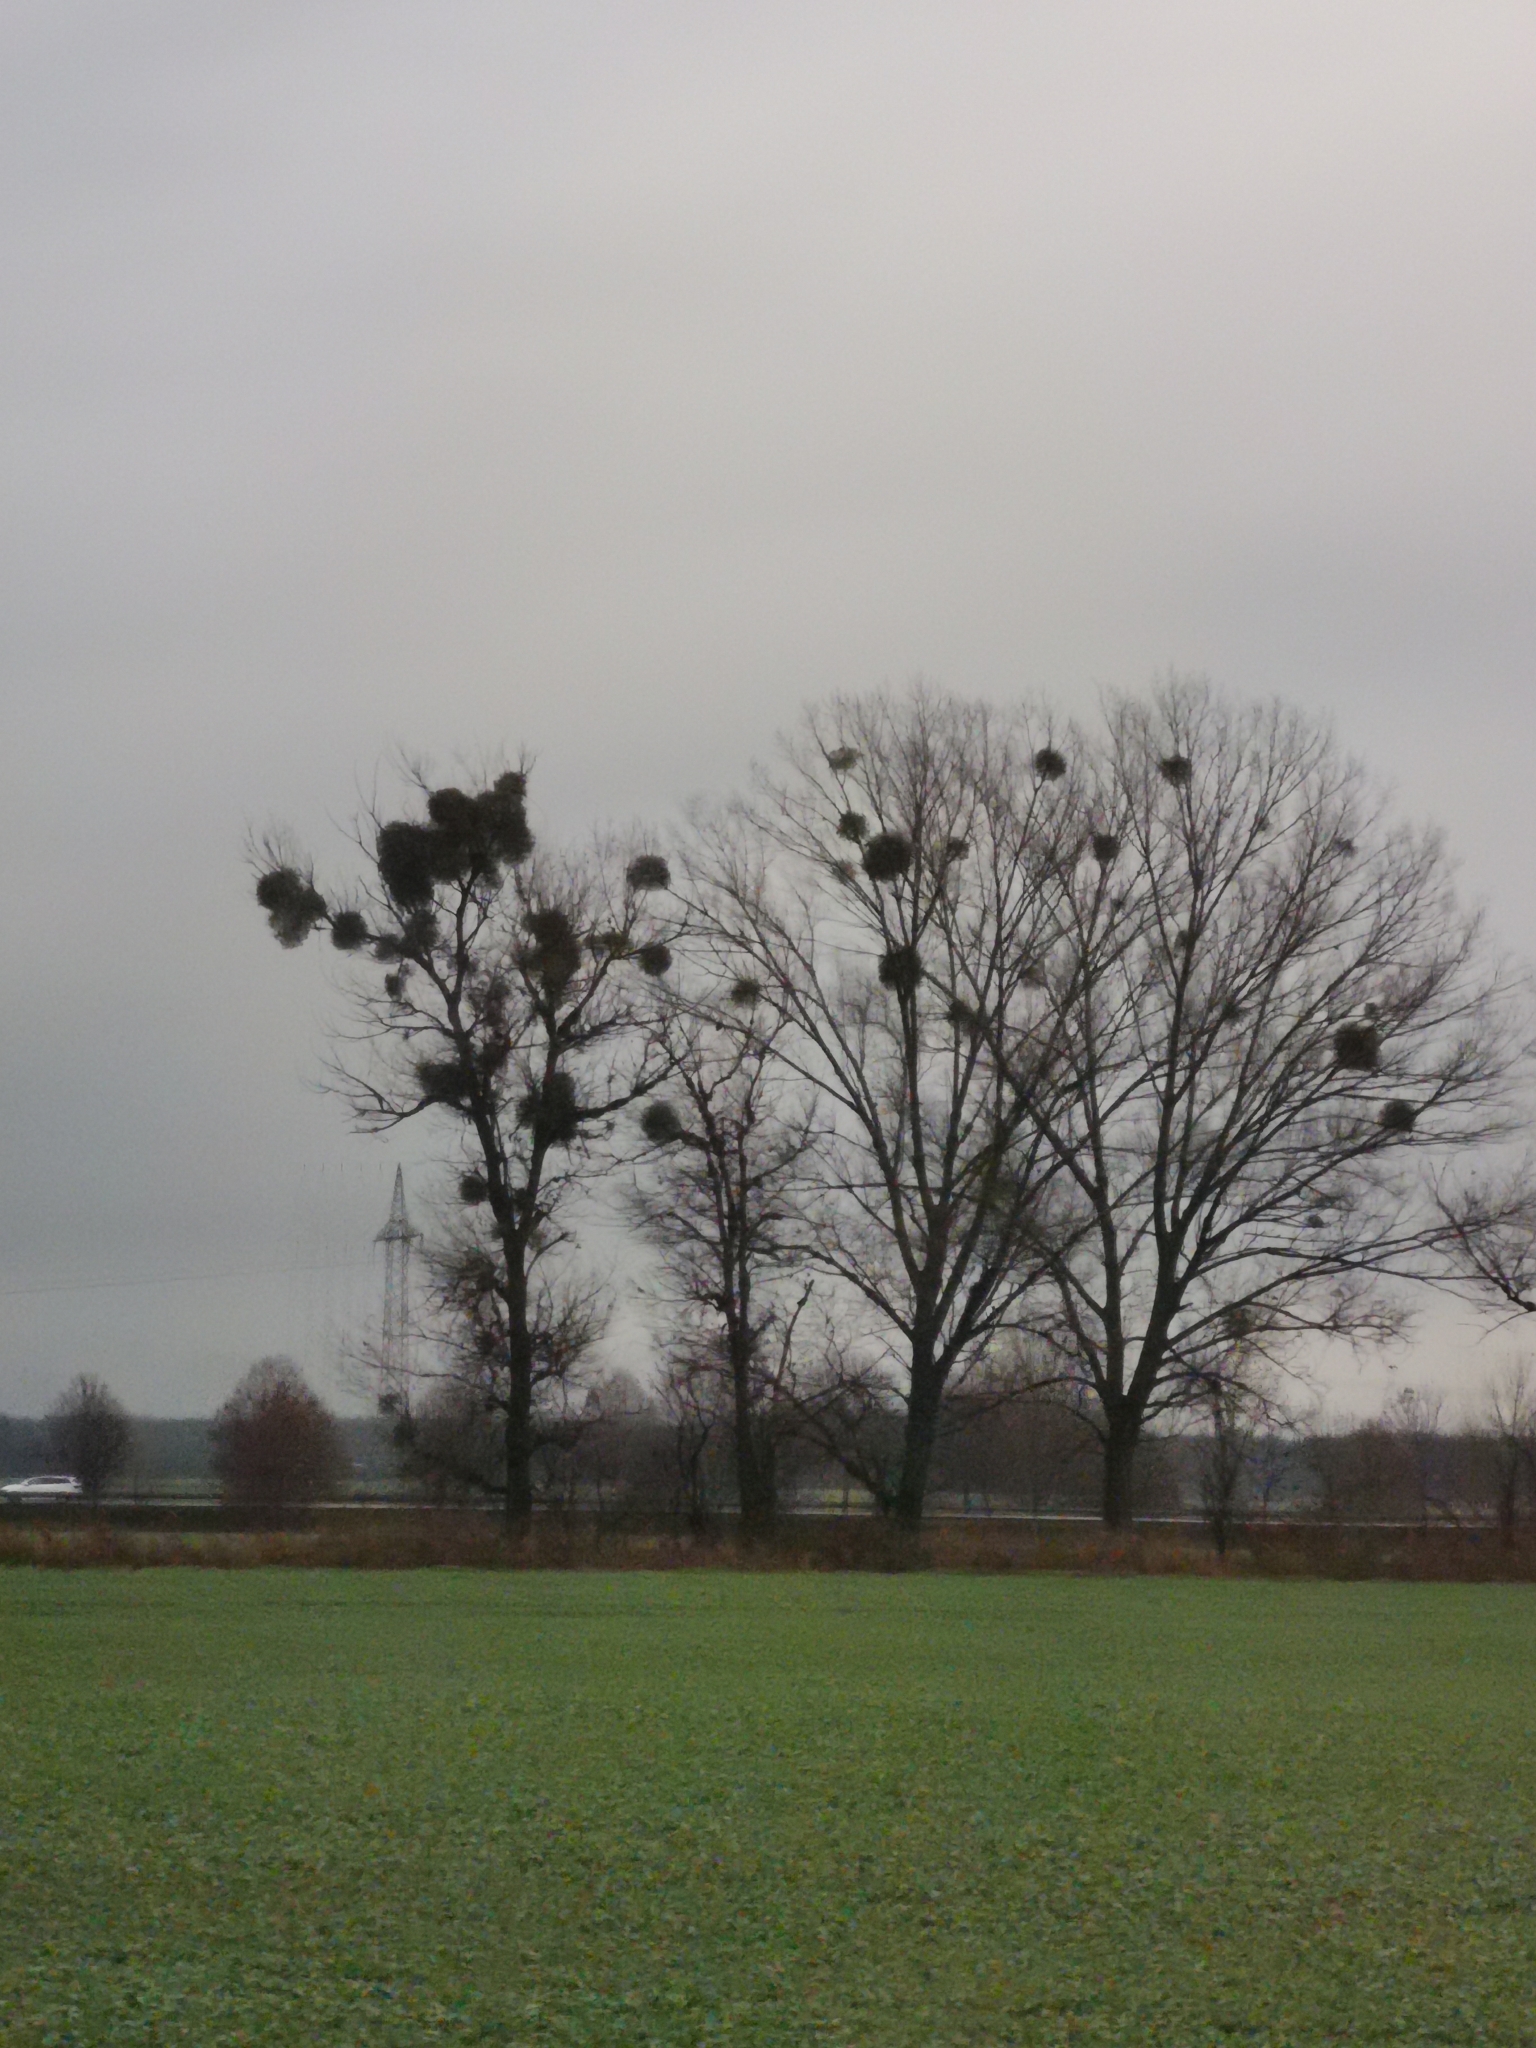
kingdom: Plantae
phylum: Tracheophyta
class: Magnoliopsida
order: Santalales
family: Viscaceae
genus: Viscum
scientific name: Viscum album
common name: Mistletoe
